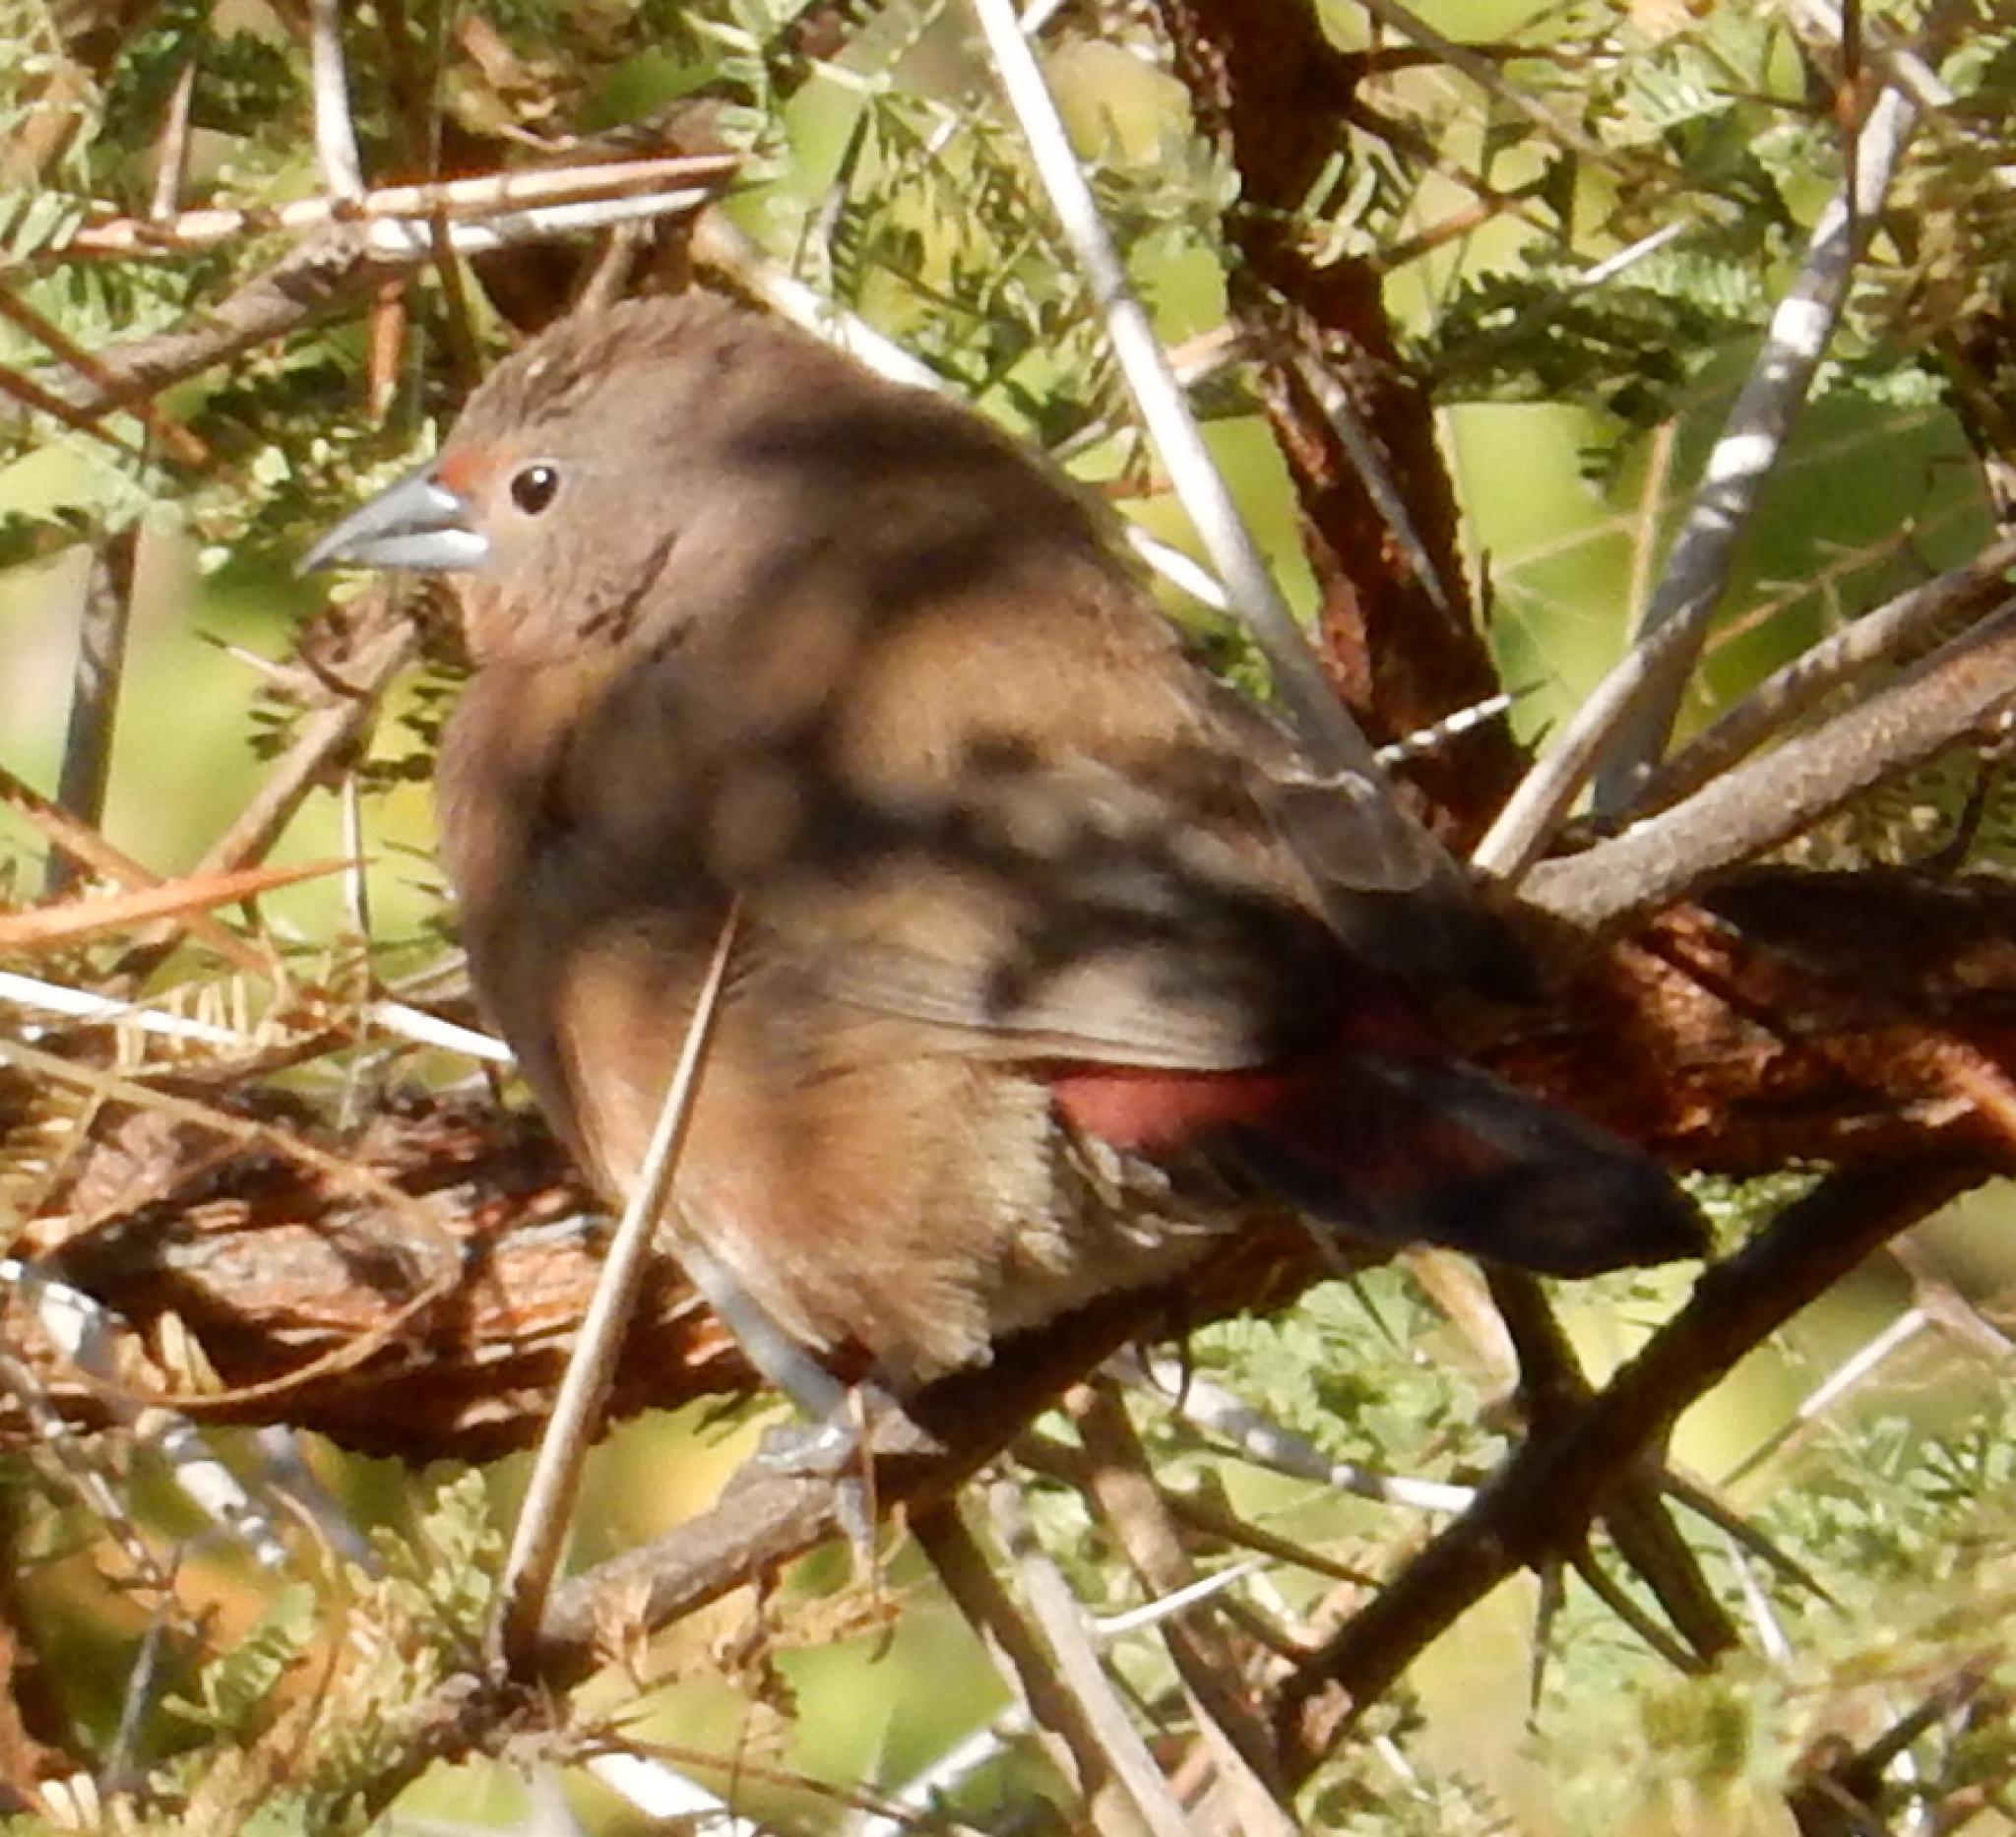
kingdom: Animalia
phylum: Chordata
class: Aves
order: Passeriformes
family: Estrildidae
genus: Lagonosticta
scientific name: Lagonosticta rhodopareia
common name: Jameson's firefinch
